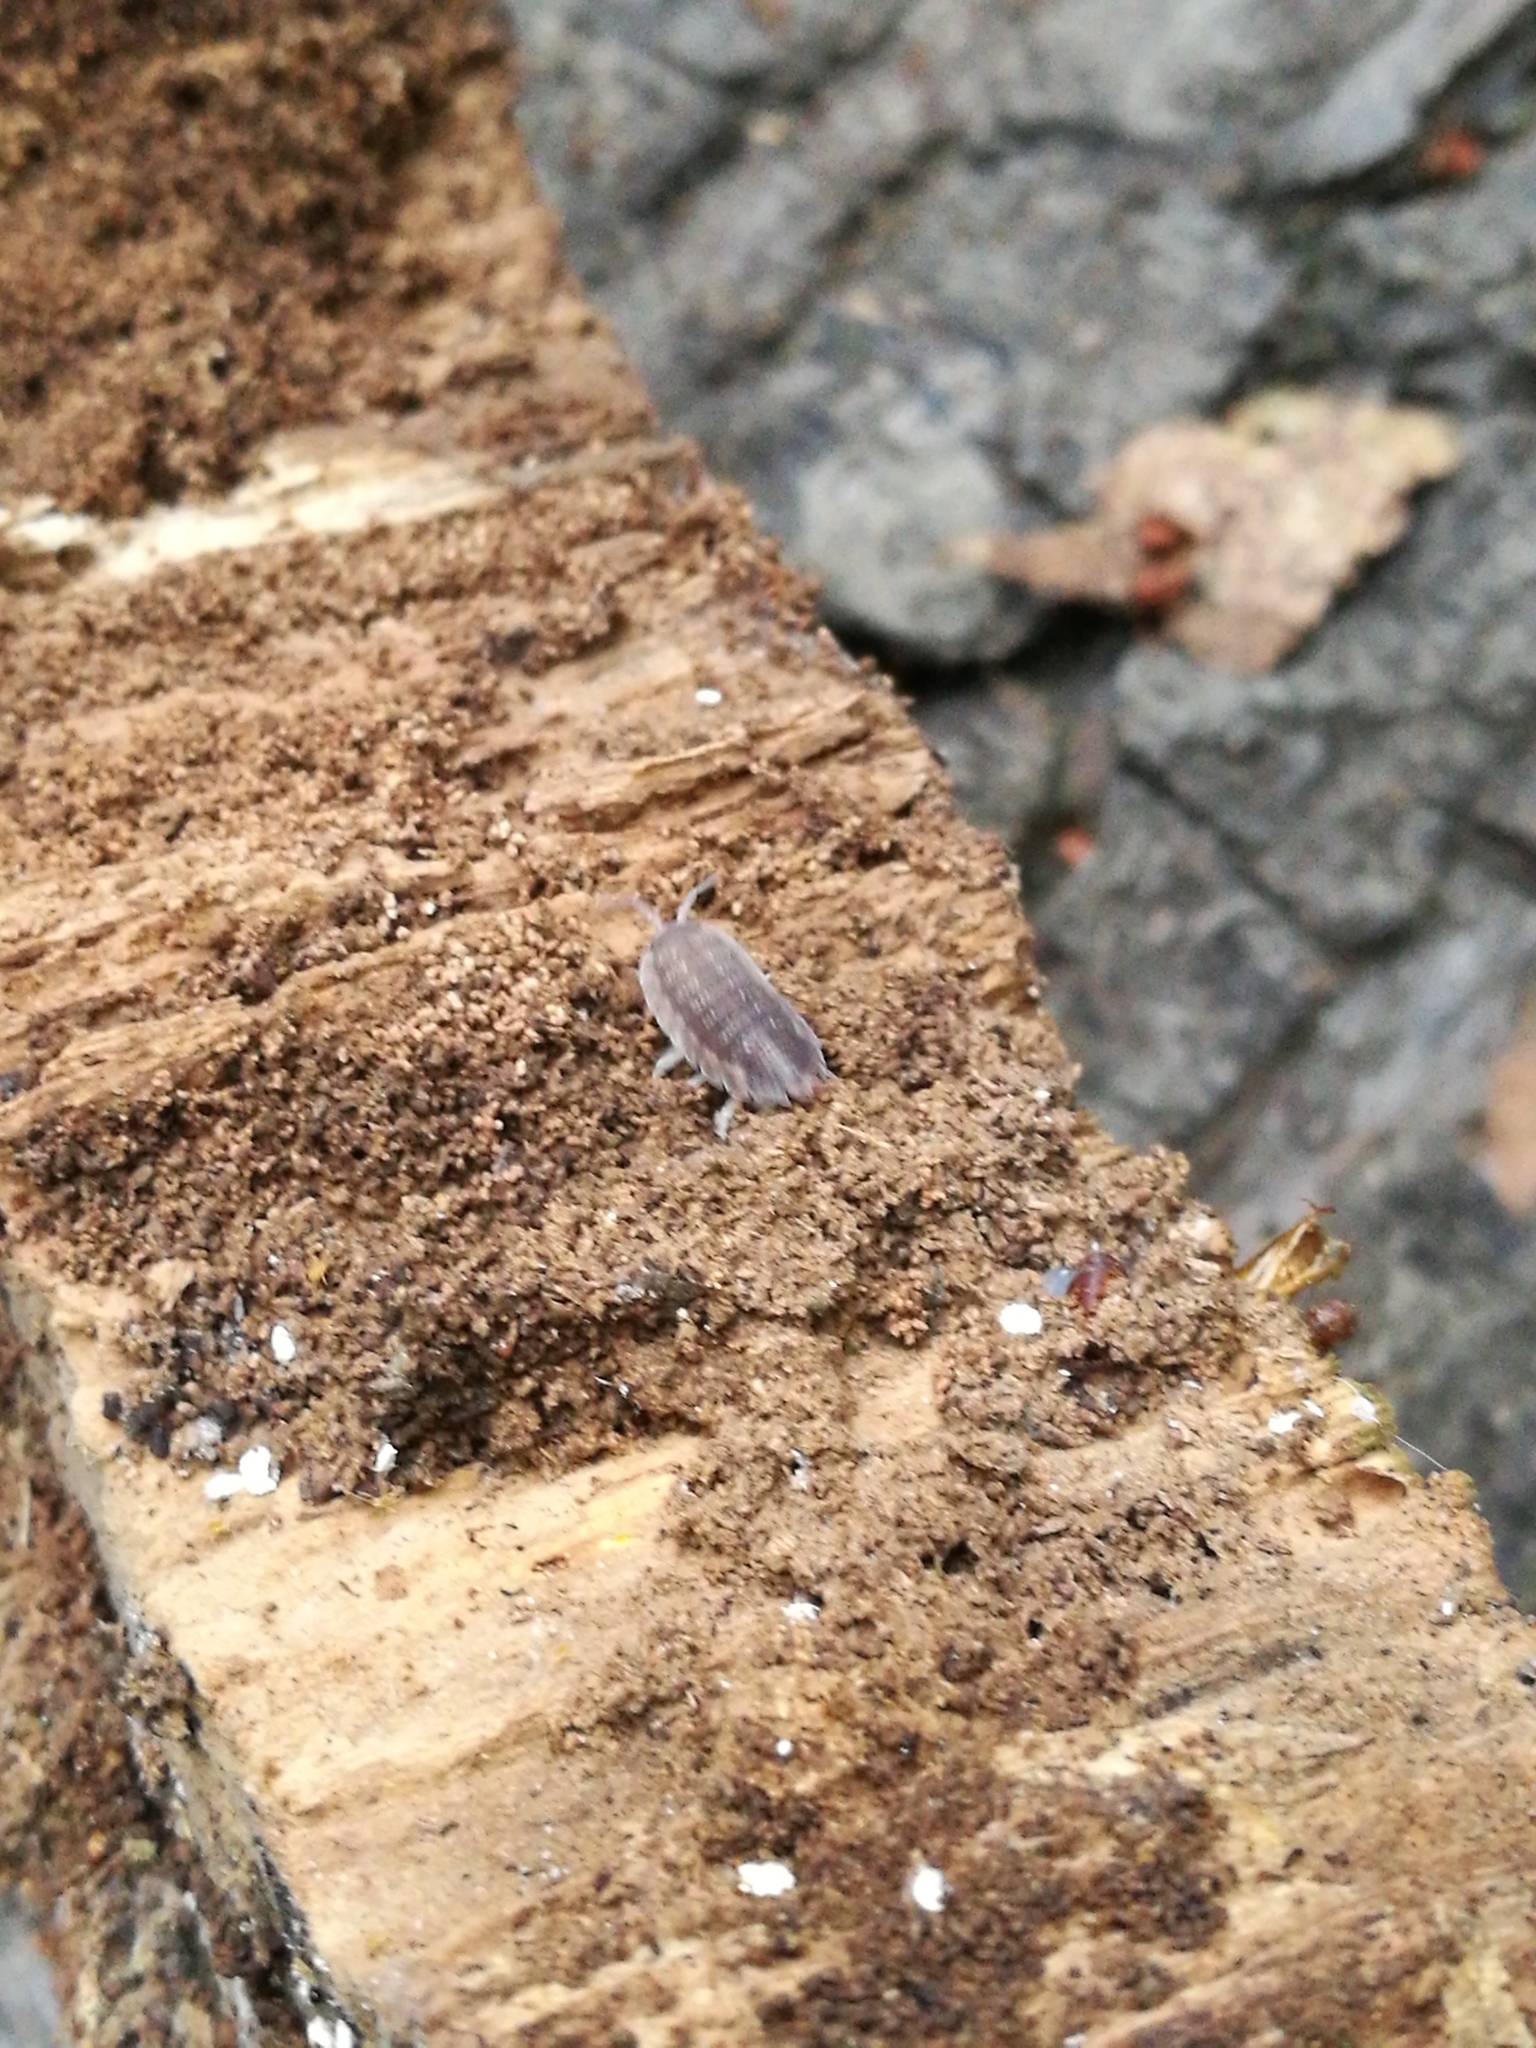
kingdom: Animalia
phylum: Arthropoda
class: Malacostraca
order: Isopoda
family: Porcellionidae
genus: Porcellio
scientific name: Porcellio scaber
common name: Common rough woodlouse
